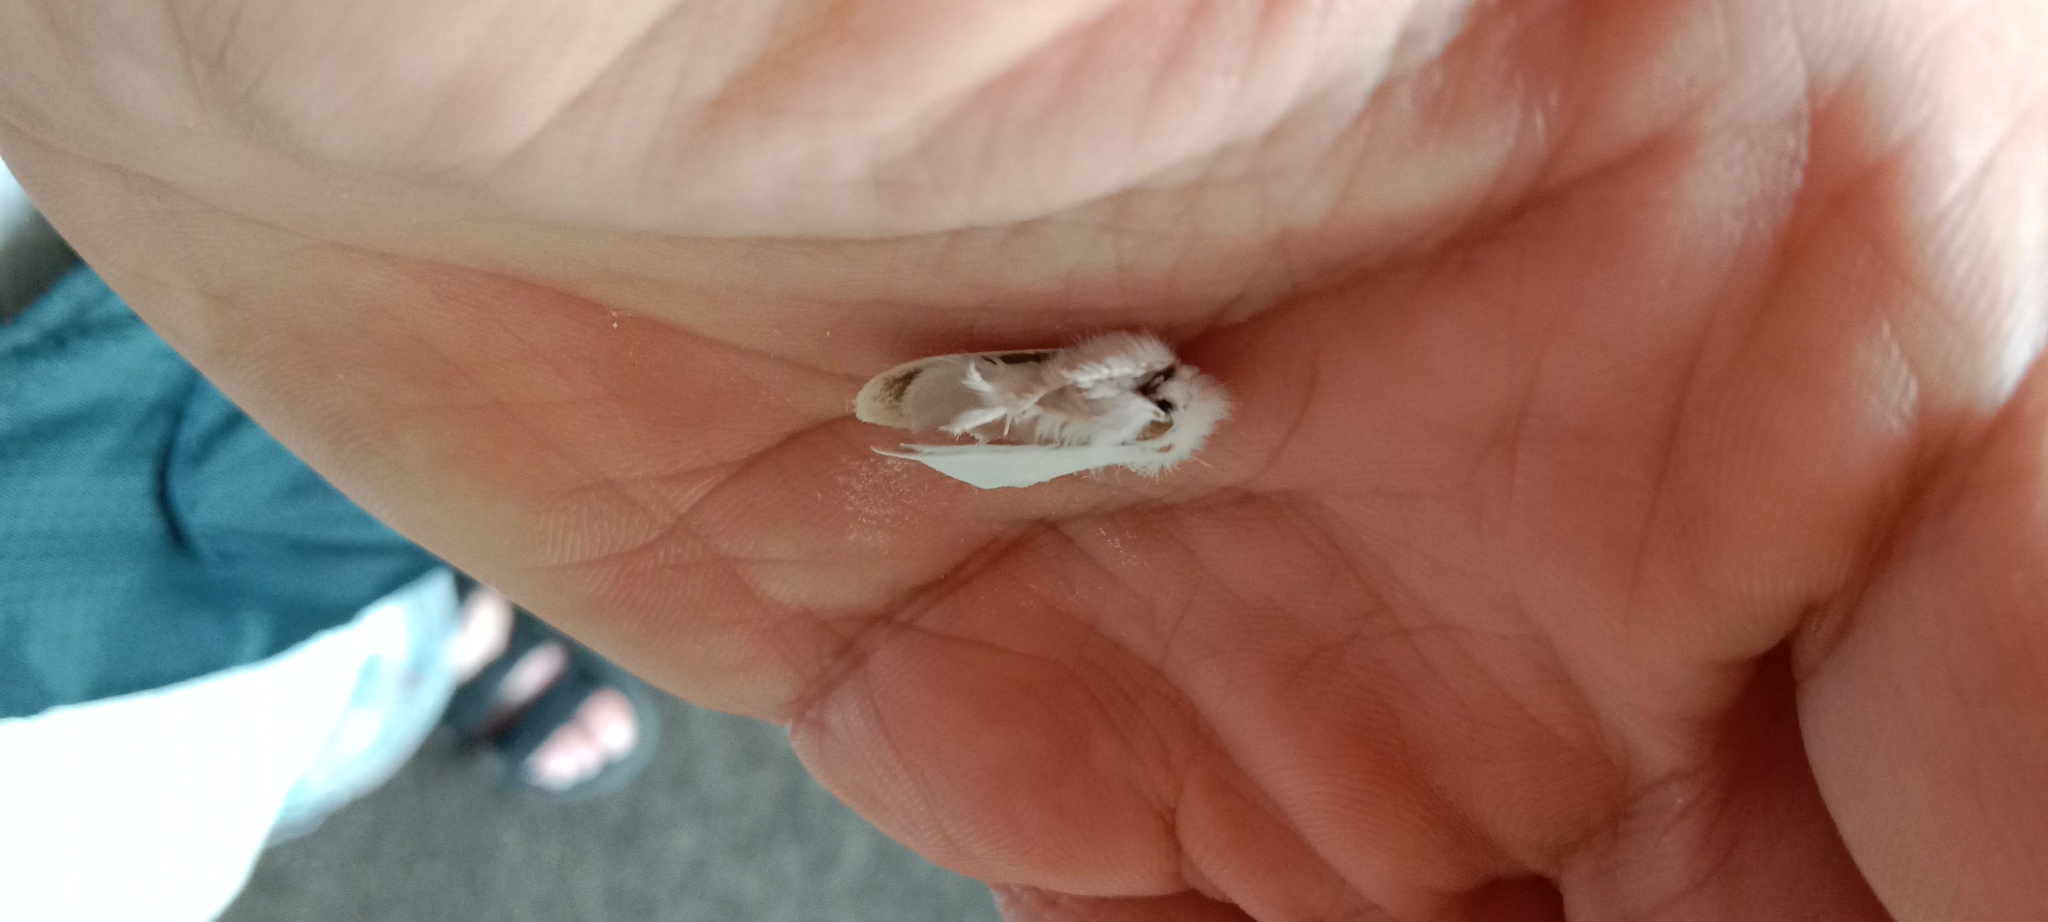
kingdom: Animalia
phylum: Arthropoda
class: Insecta
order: Lepidoptera
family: Erebidae
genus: Sphrageidus
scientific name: Sphrageidus similis
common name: Yellow-tail
